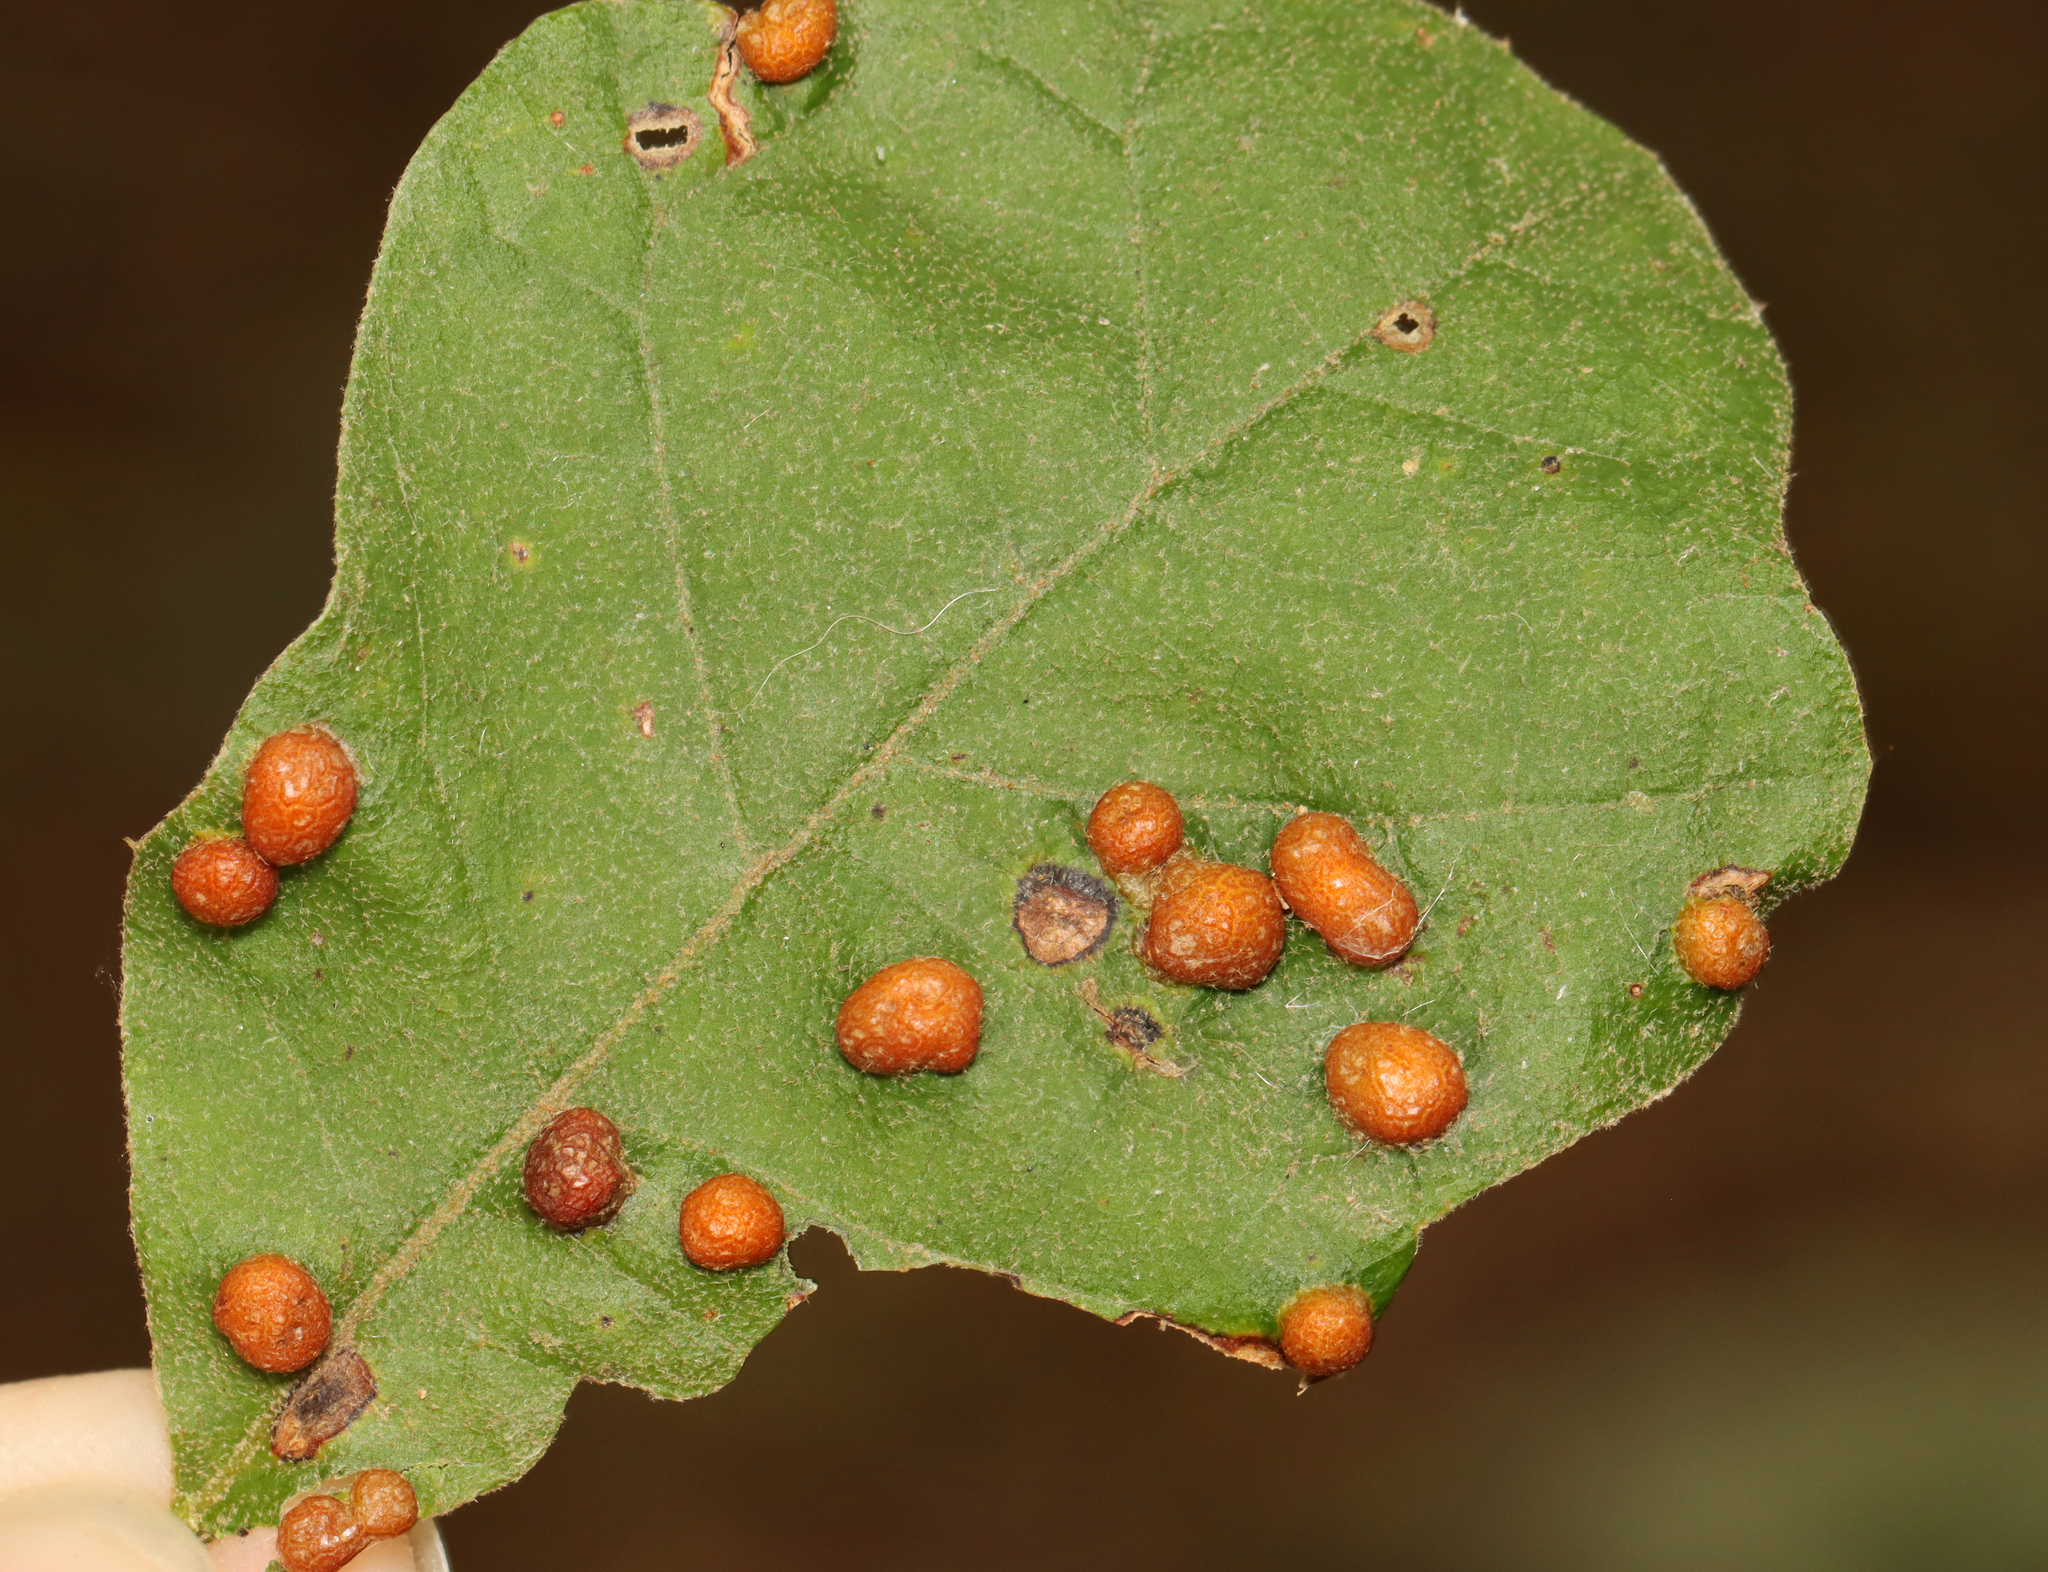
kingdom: Animalia
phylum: Arthropoda
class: Insecta
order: Diptera
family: Cecidomyiidae
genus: Polystepha
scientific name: Polystepha pilulae
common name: Oak leaf gall midge
